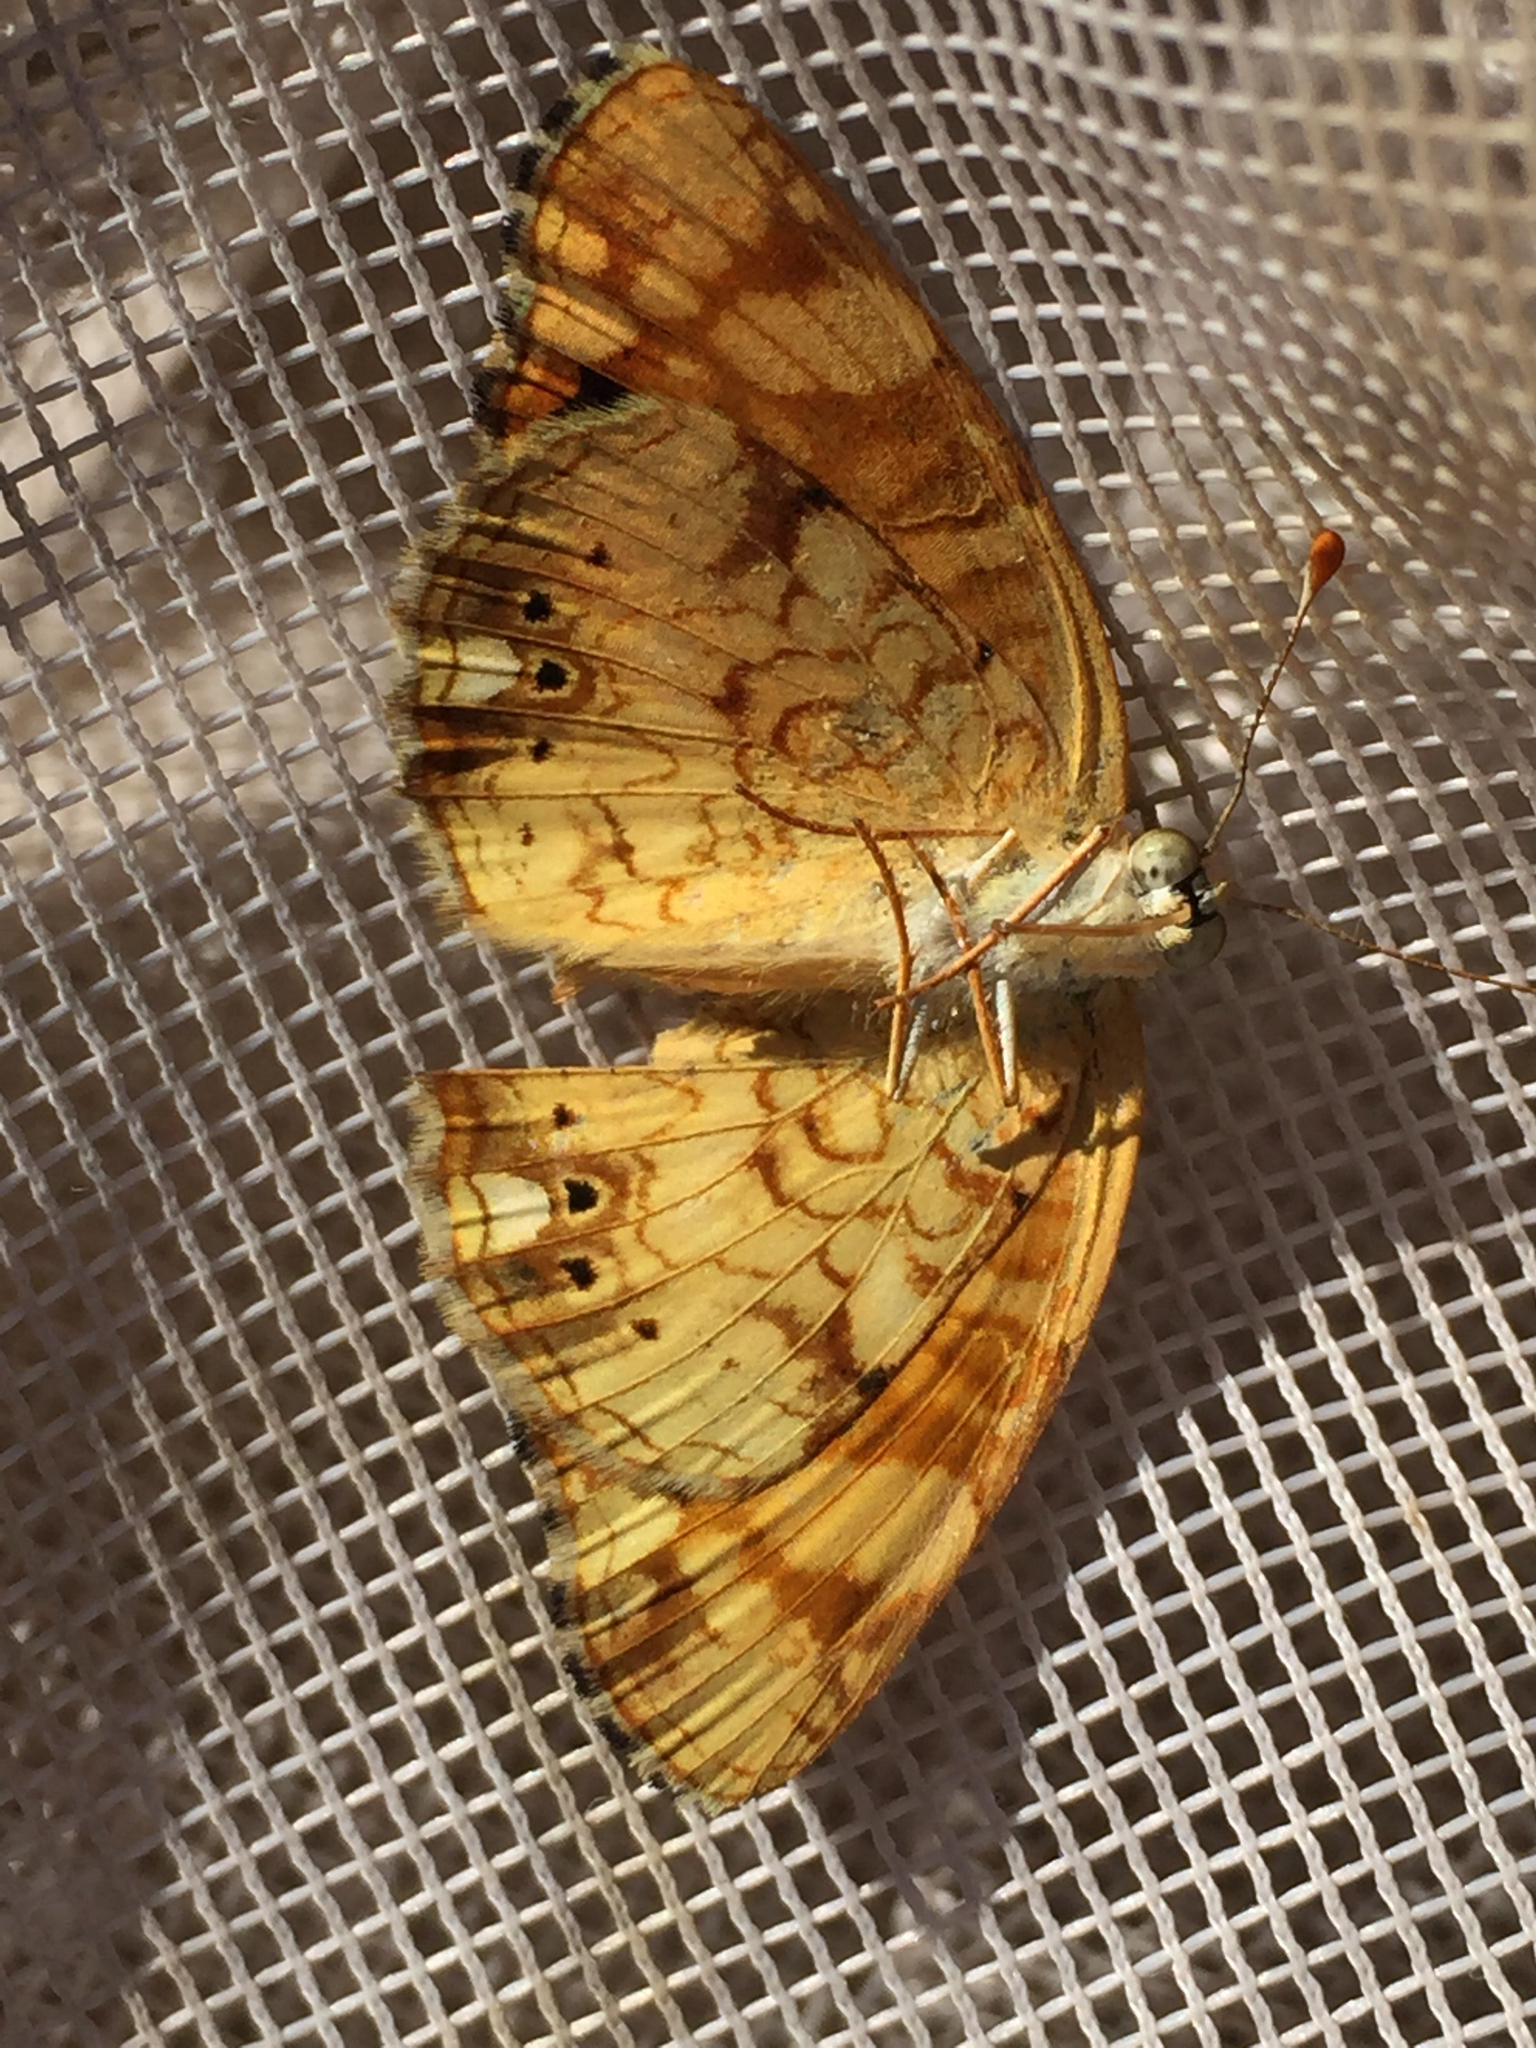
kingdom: Animalia
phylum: Arthropoda
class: Insecta
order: Lepidoptera
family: Nymphalidae
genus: Eresia
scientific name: Eresia aveyrona
